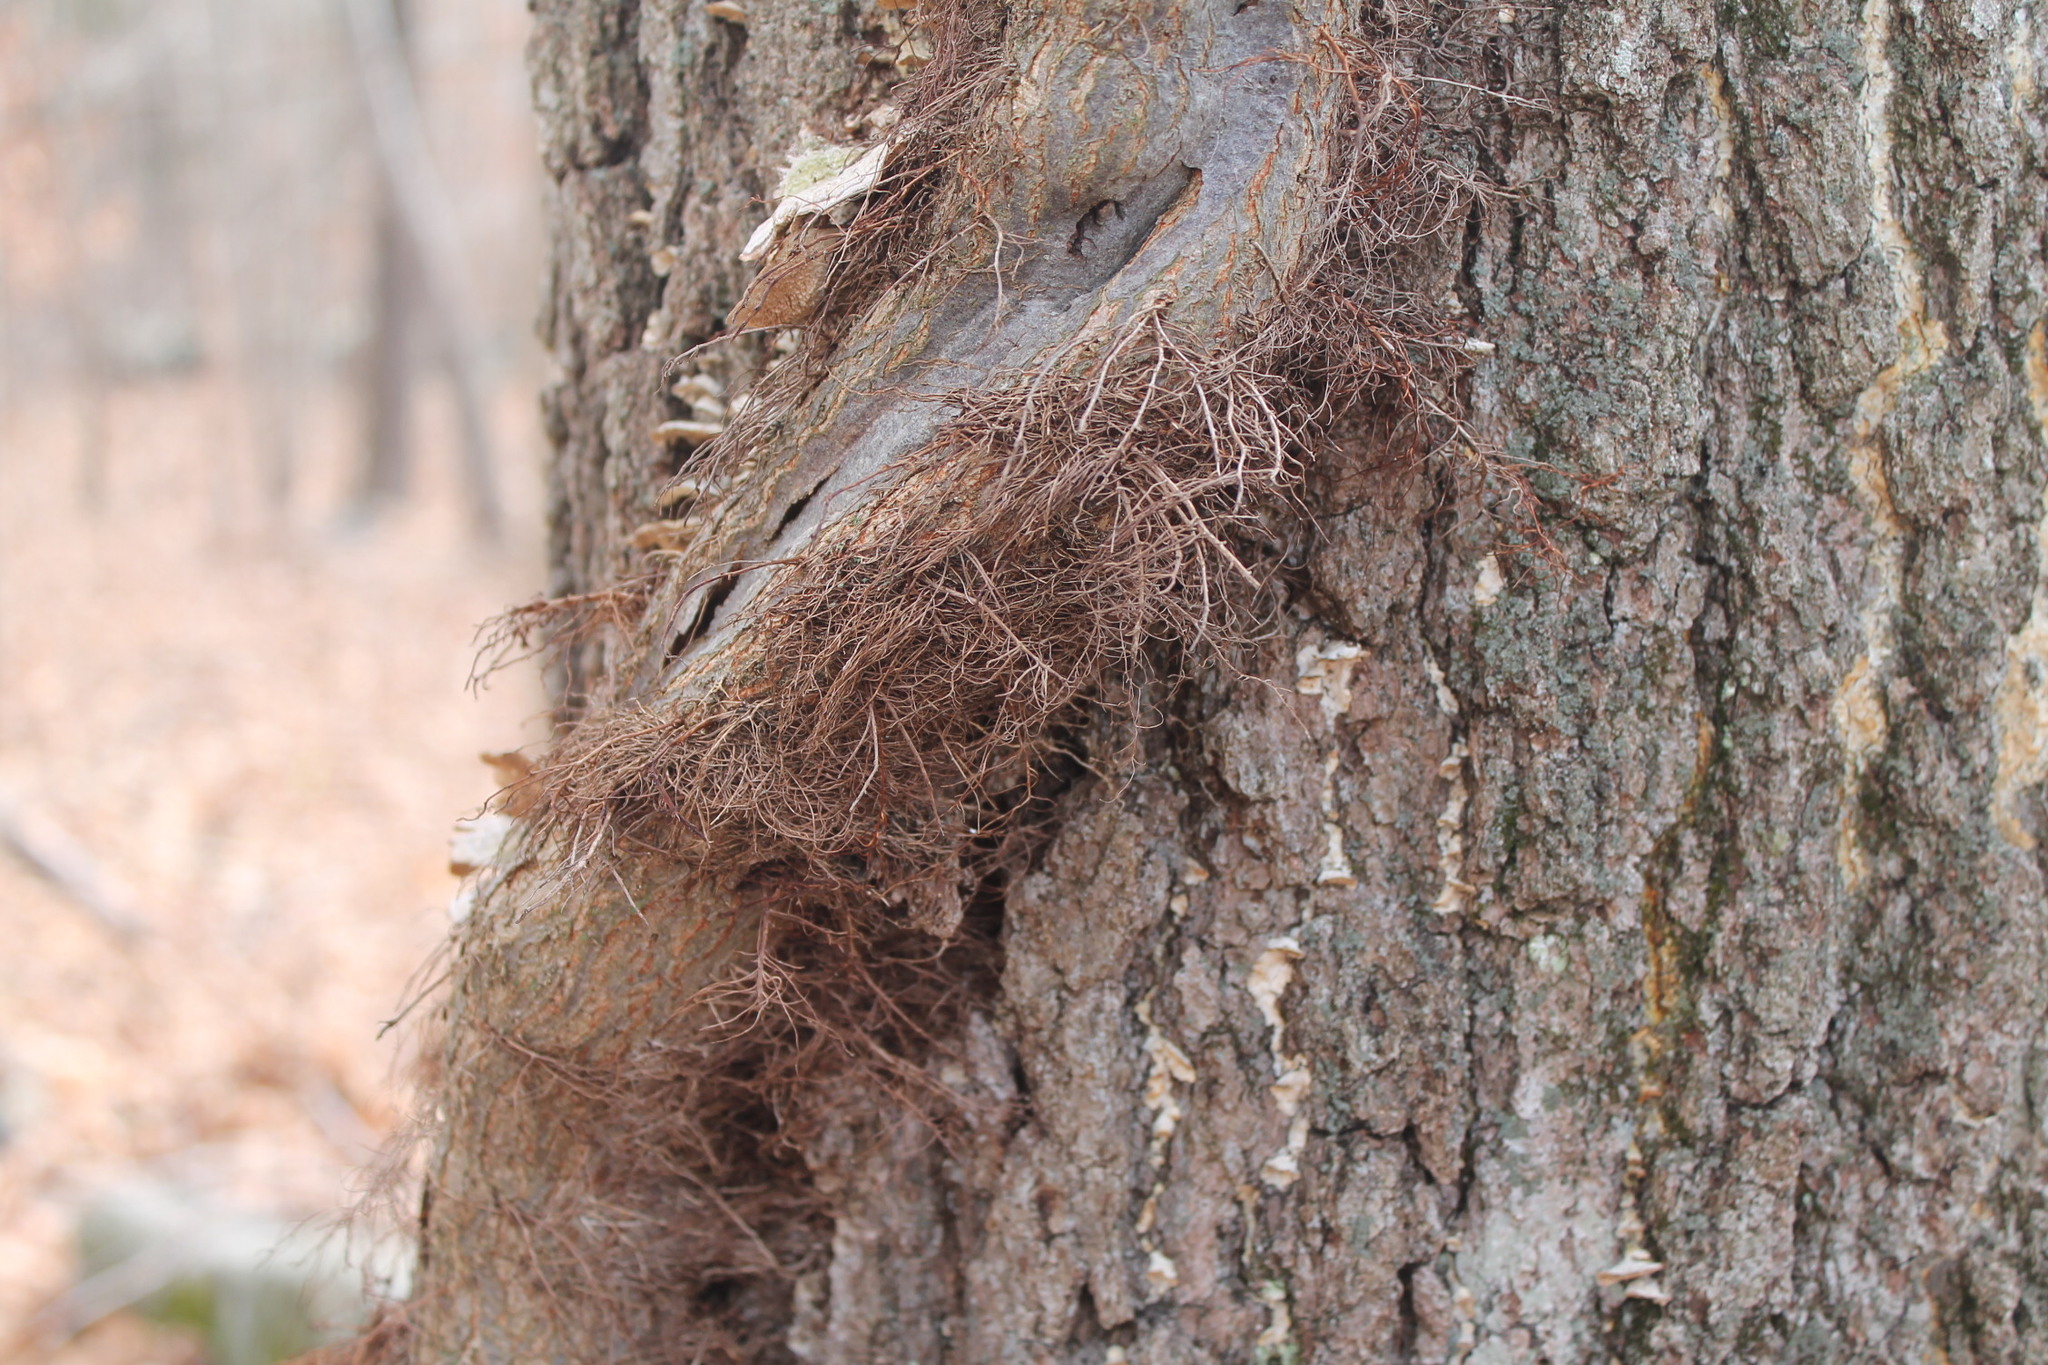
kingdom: Plantae
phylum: Tracheophyta
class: Magnoliopsida
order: Sapindales
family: Anacardiaceae
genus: Toxicodendron
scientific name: Toxicodendron radicans
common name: Poison ivy
